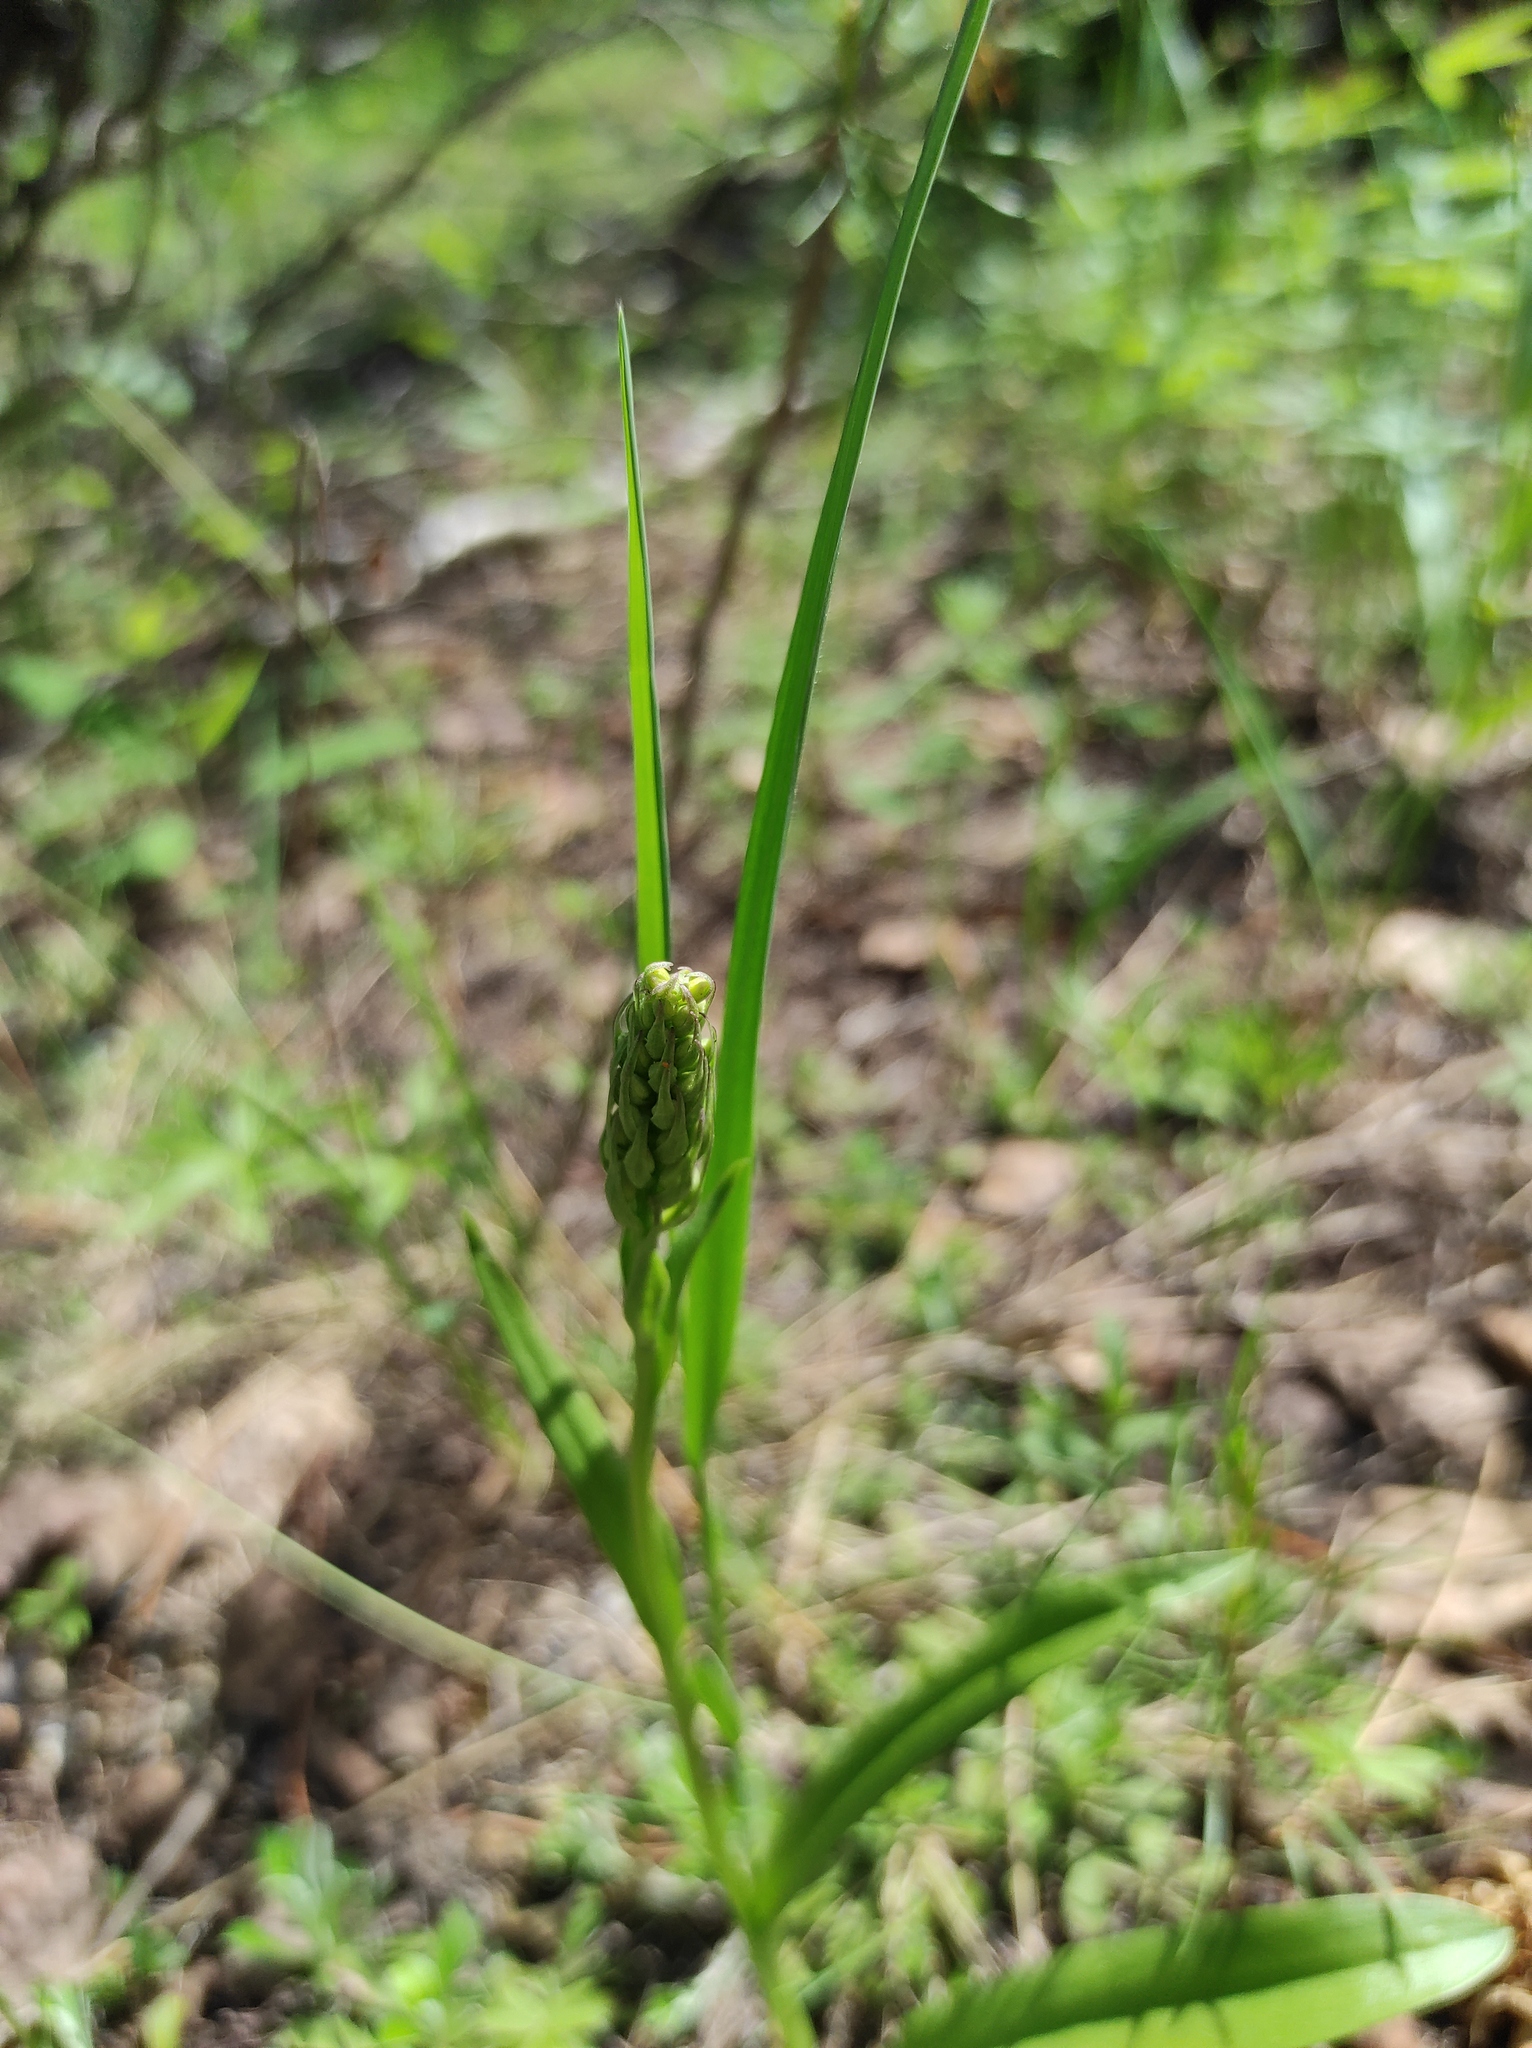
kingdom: Plantae
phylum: Tracheophyta
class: Liliopsida
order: Asparagales
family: Orchidaceae
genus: Gymnadenia
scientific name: Gymnadenia conopsea
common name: Fragrant orchid
